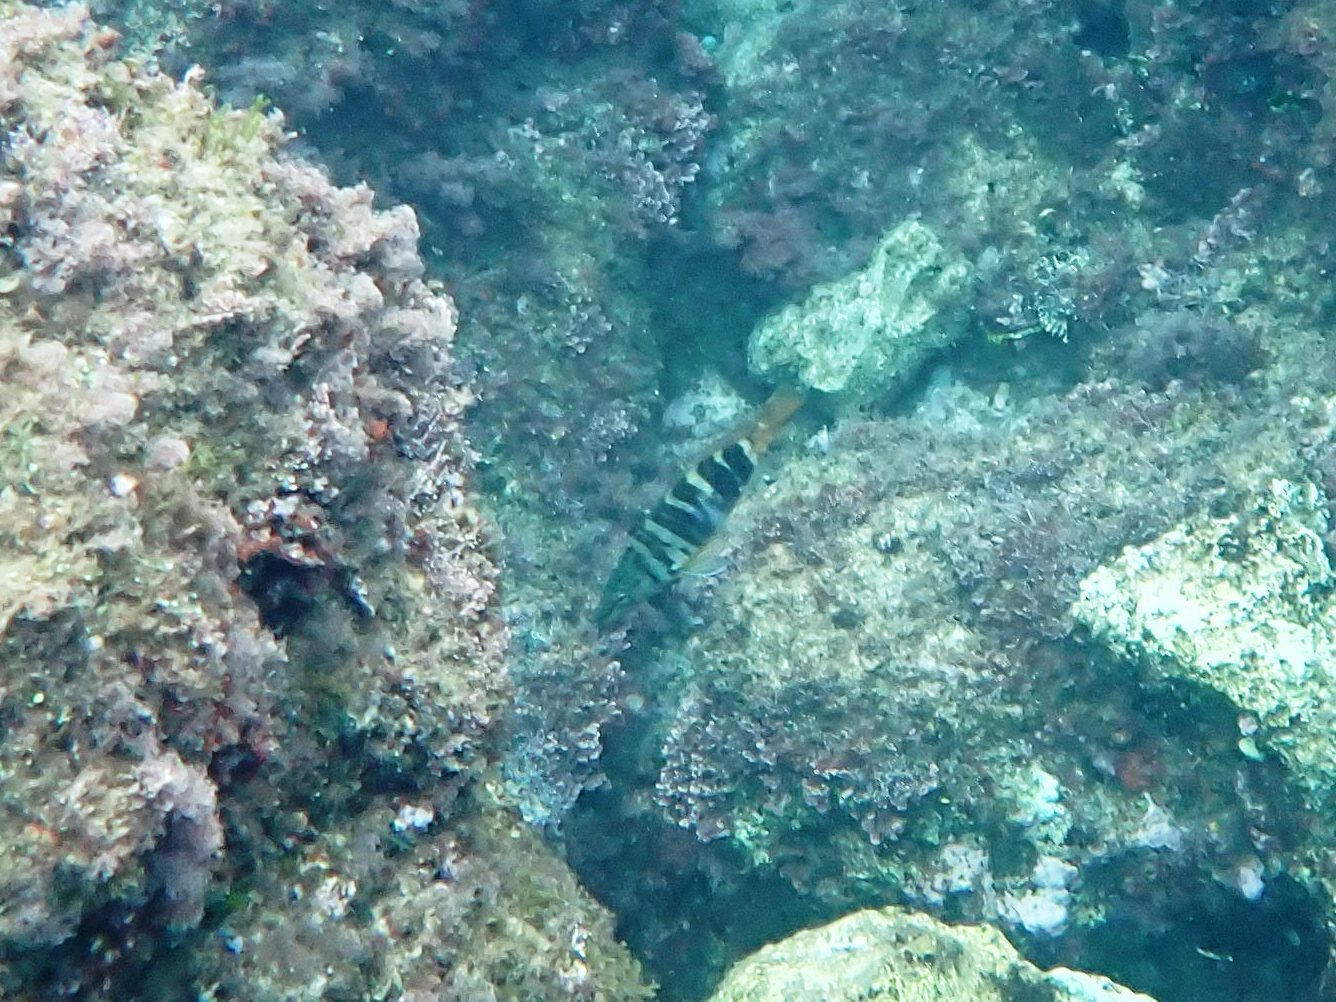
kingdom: Animalia
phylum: Chordata
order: Perciformes
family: Serranidae
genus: Serranus
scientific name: Serranus scriba
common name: Painted comber
